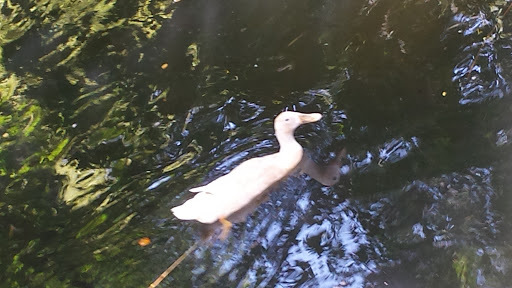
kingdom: Animalia
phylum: Chordata
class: Aves
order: Anseriformes
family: Anatidae
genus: Anas
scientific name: Anas platyrhynchos
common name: Mallard
